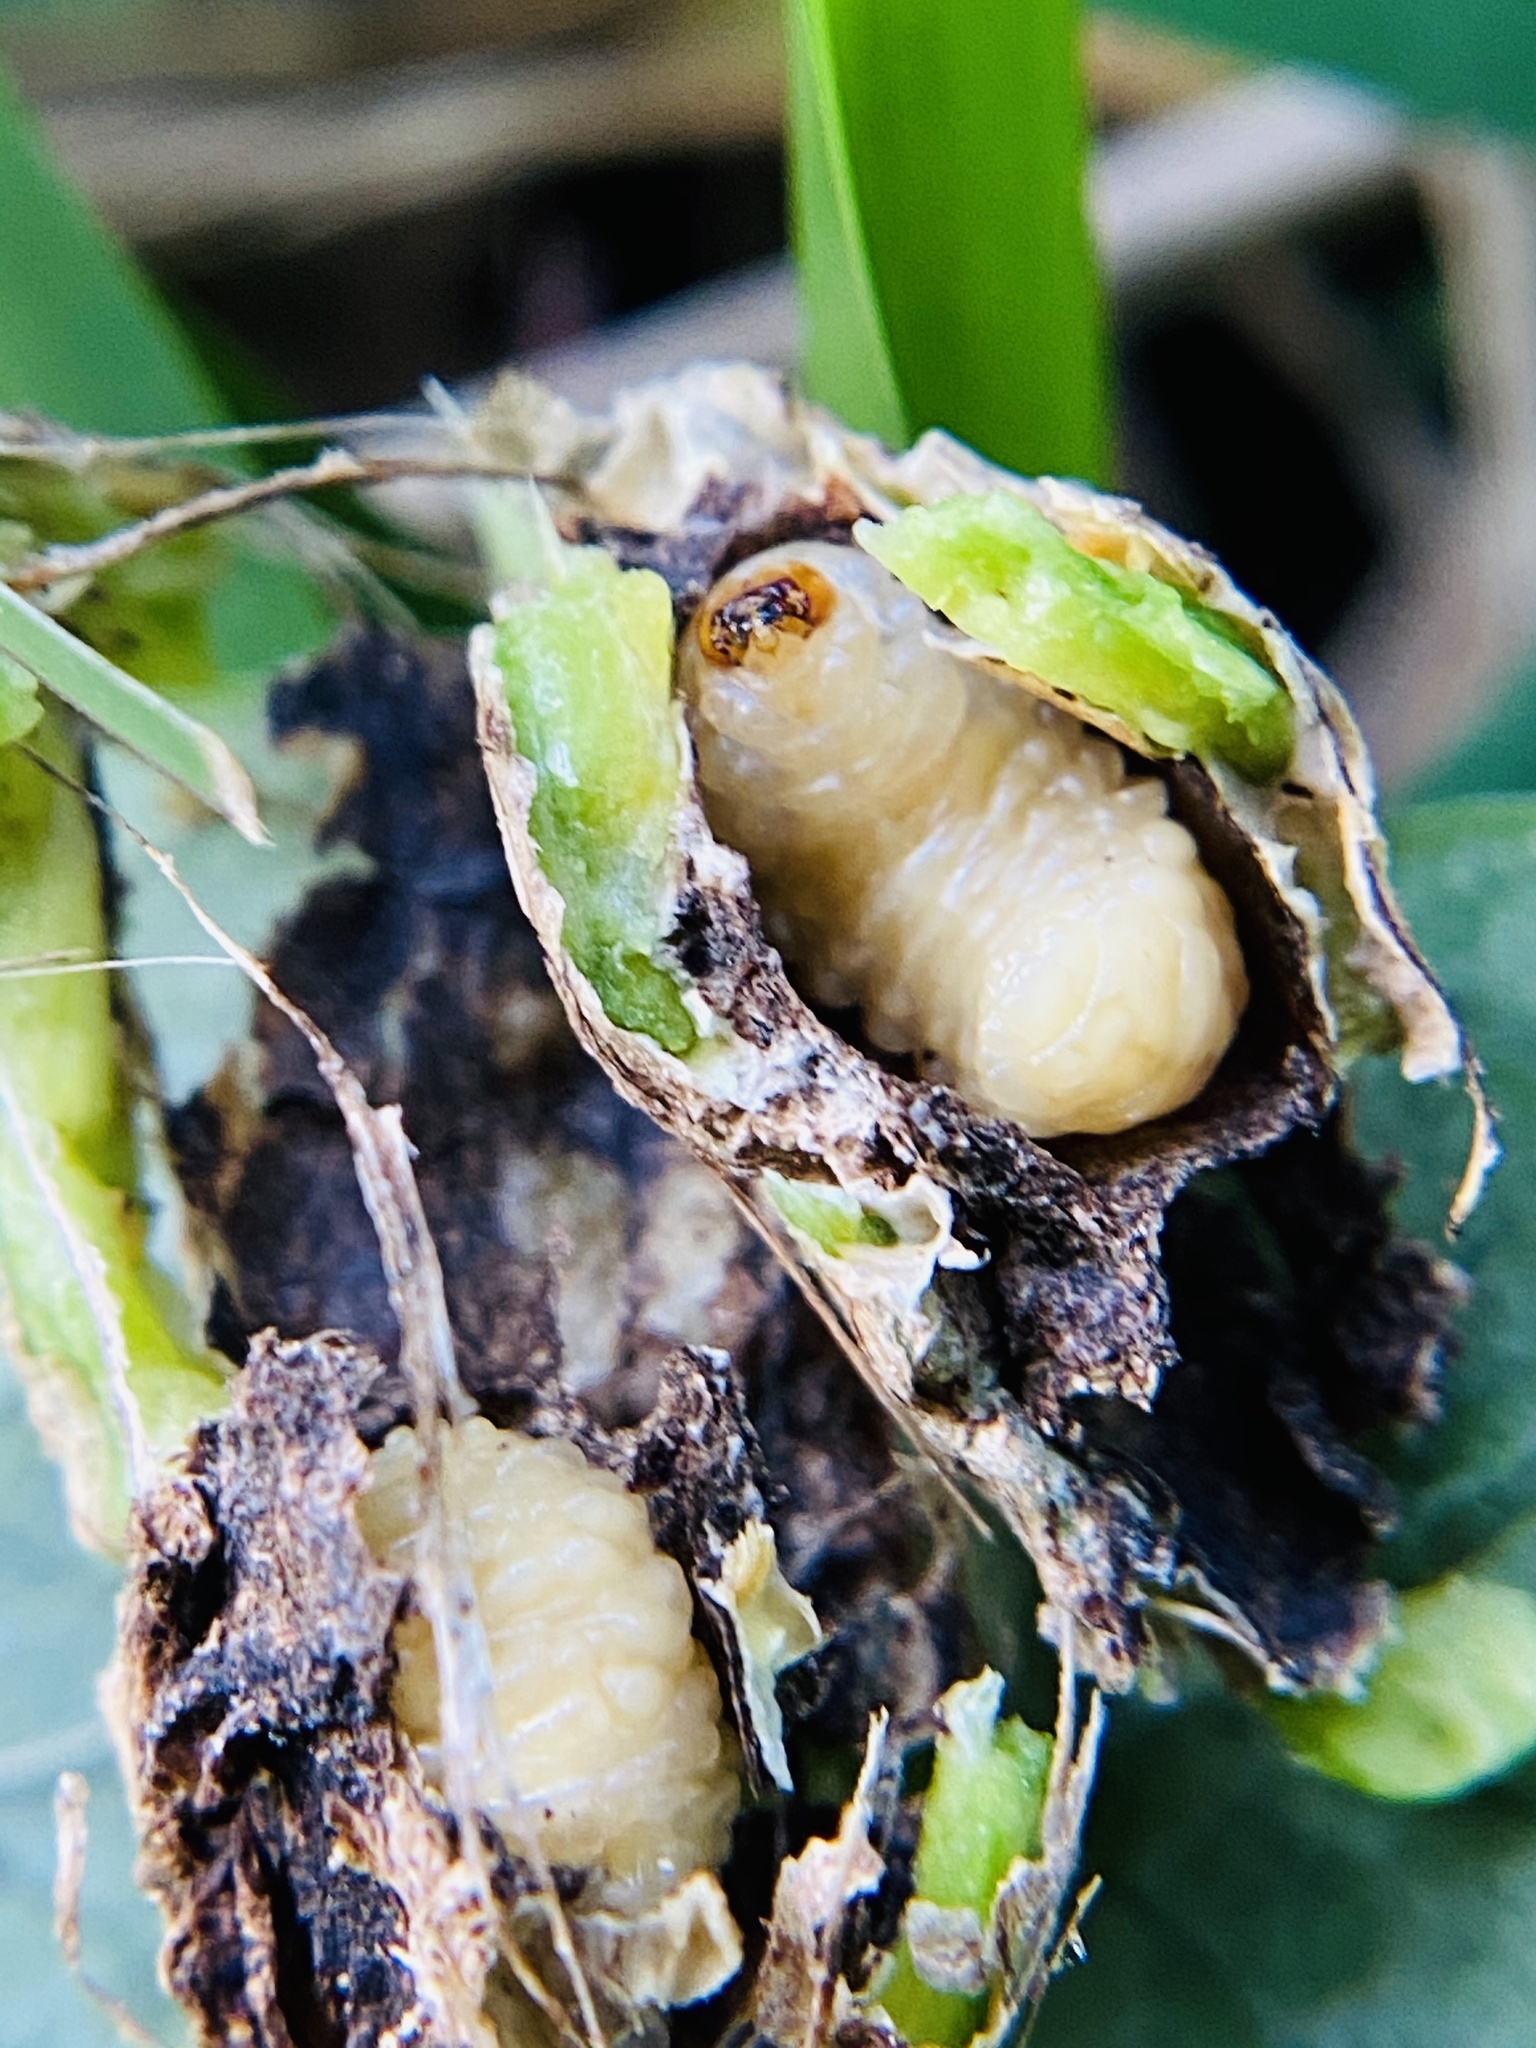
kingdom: Animalia
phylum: Arthropoda
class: Insecta
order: Coleoptera
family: Eurhynchidae
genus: Eurhinus
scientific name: Eurhinus magnificus
